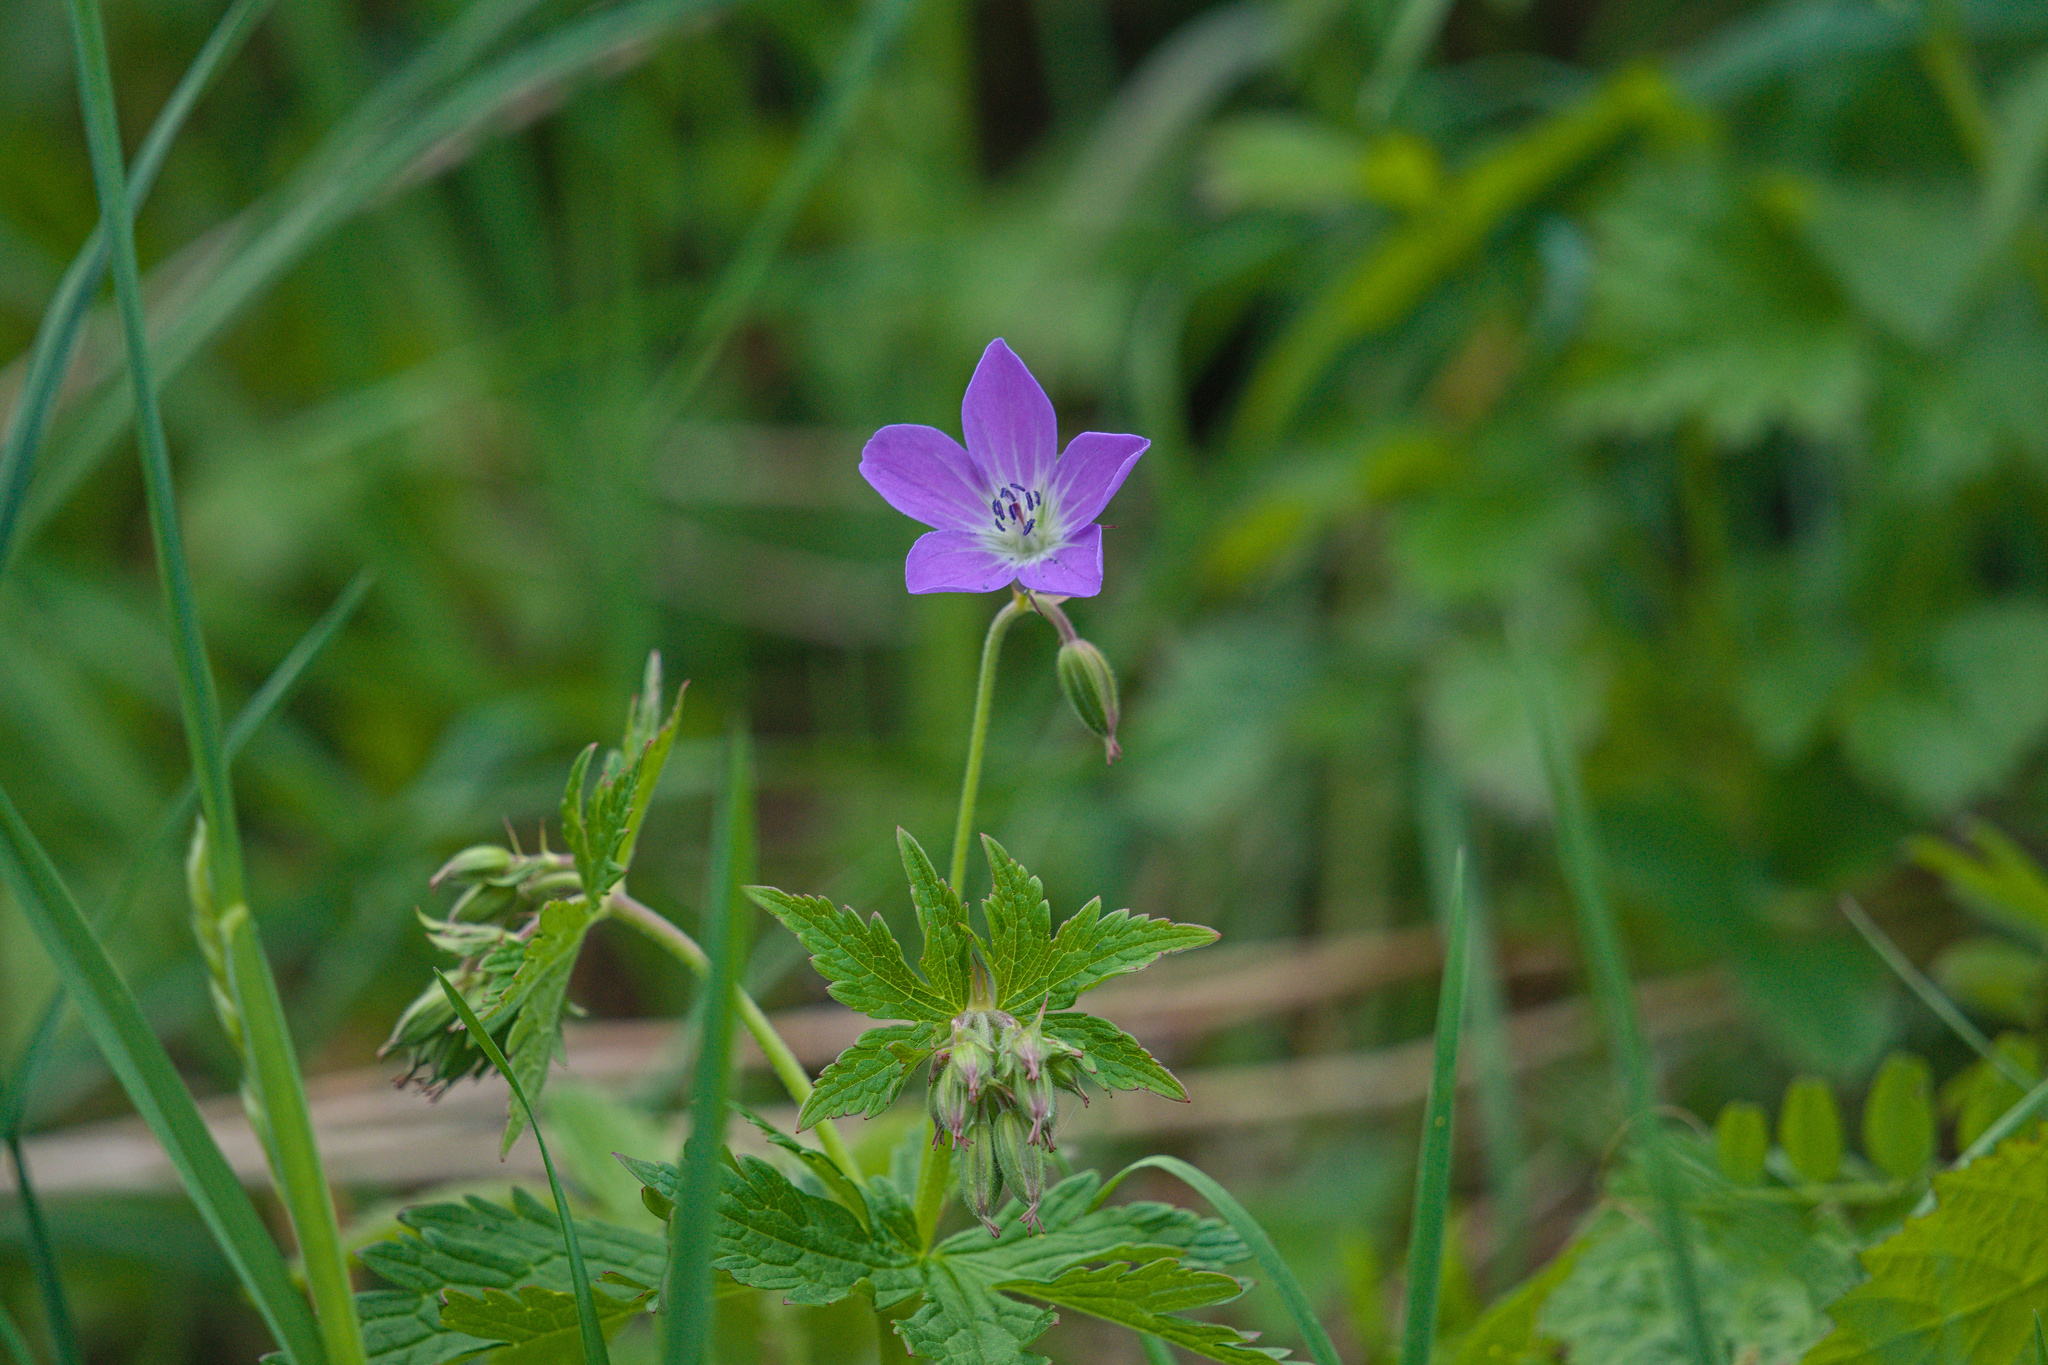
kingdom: Plantae
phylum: Tracheophyta
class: Magnoliopsida
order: Geraniales
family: Geraniaceae
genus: Geranium
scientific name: Geranium sylvaticum
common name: Wood crane's-bill
